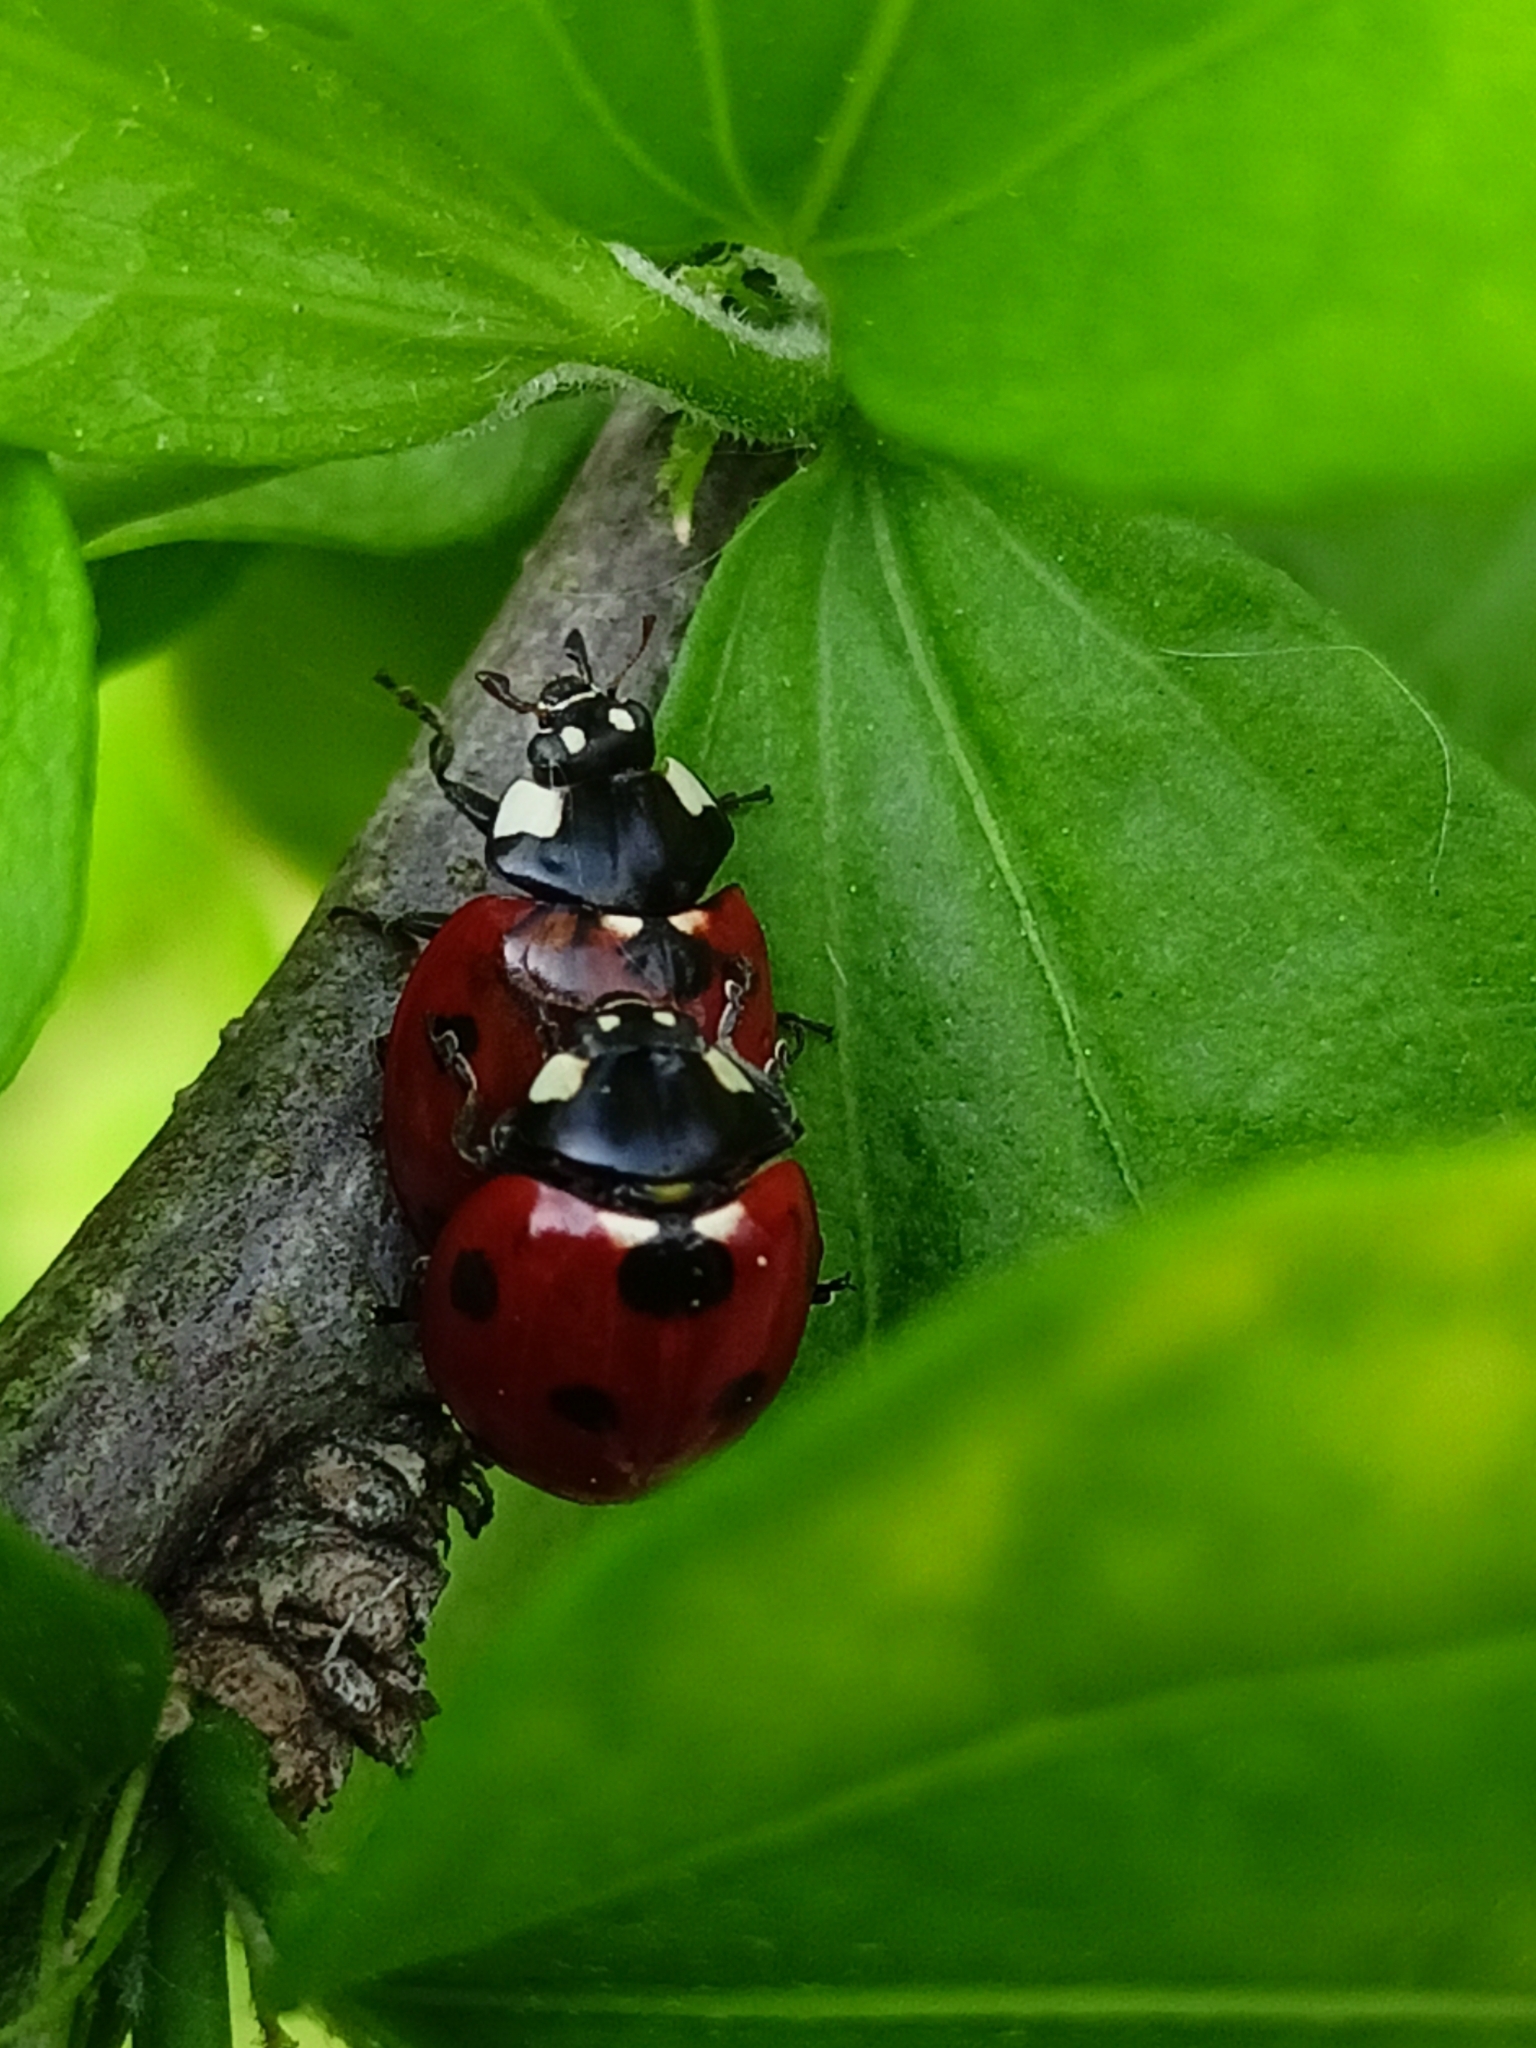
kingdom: Animalia
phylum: Arthropoda
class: Insecta
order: Coleoptera
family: Coccinellidae
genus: Coccinella
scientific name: Coccinella septempunctata
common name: Sevenspotted lady beetle
